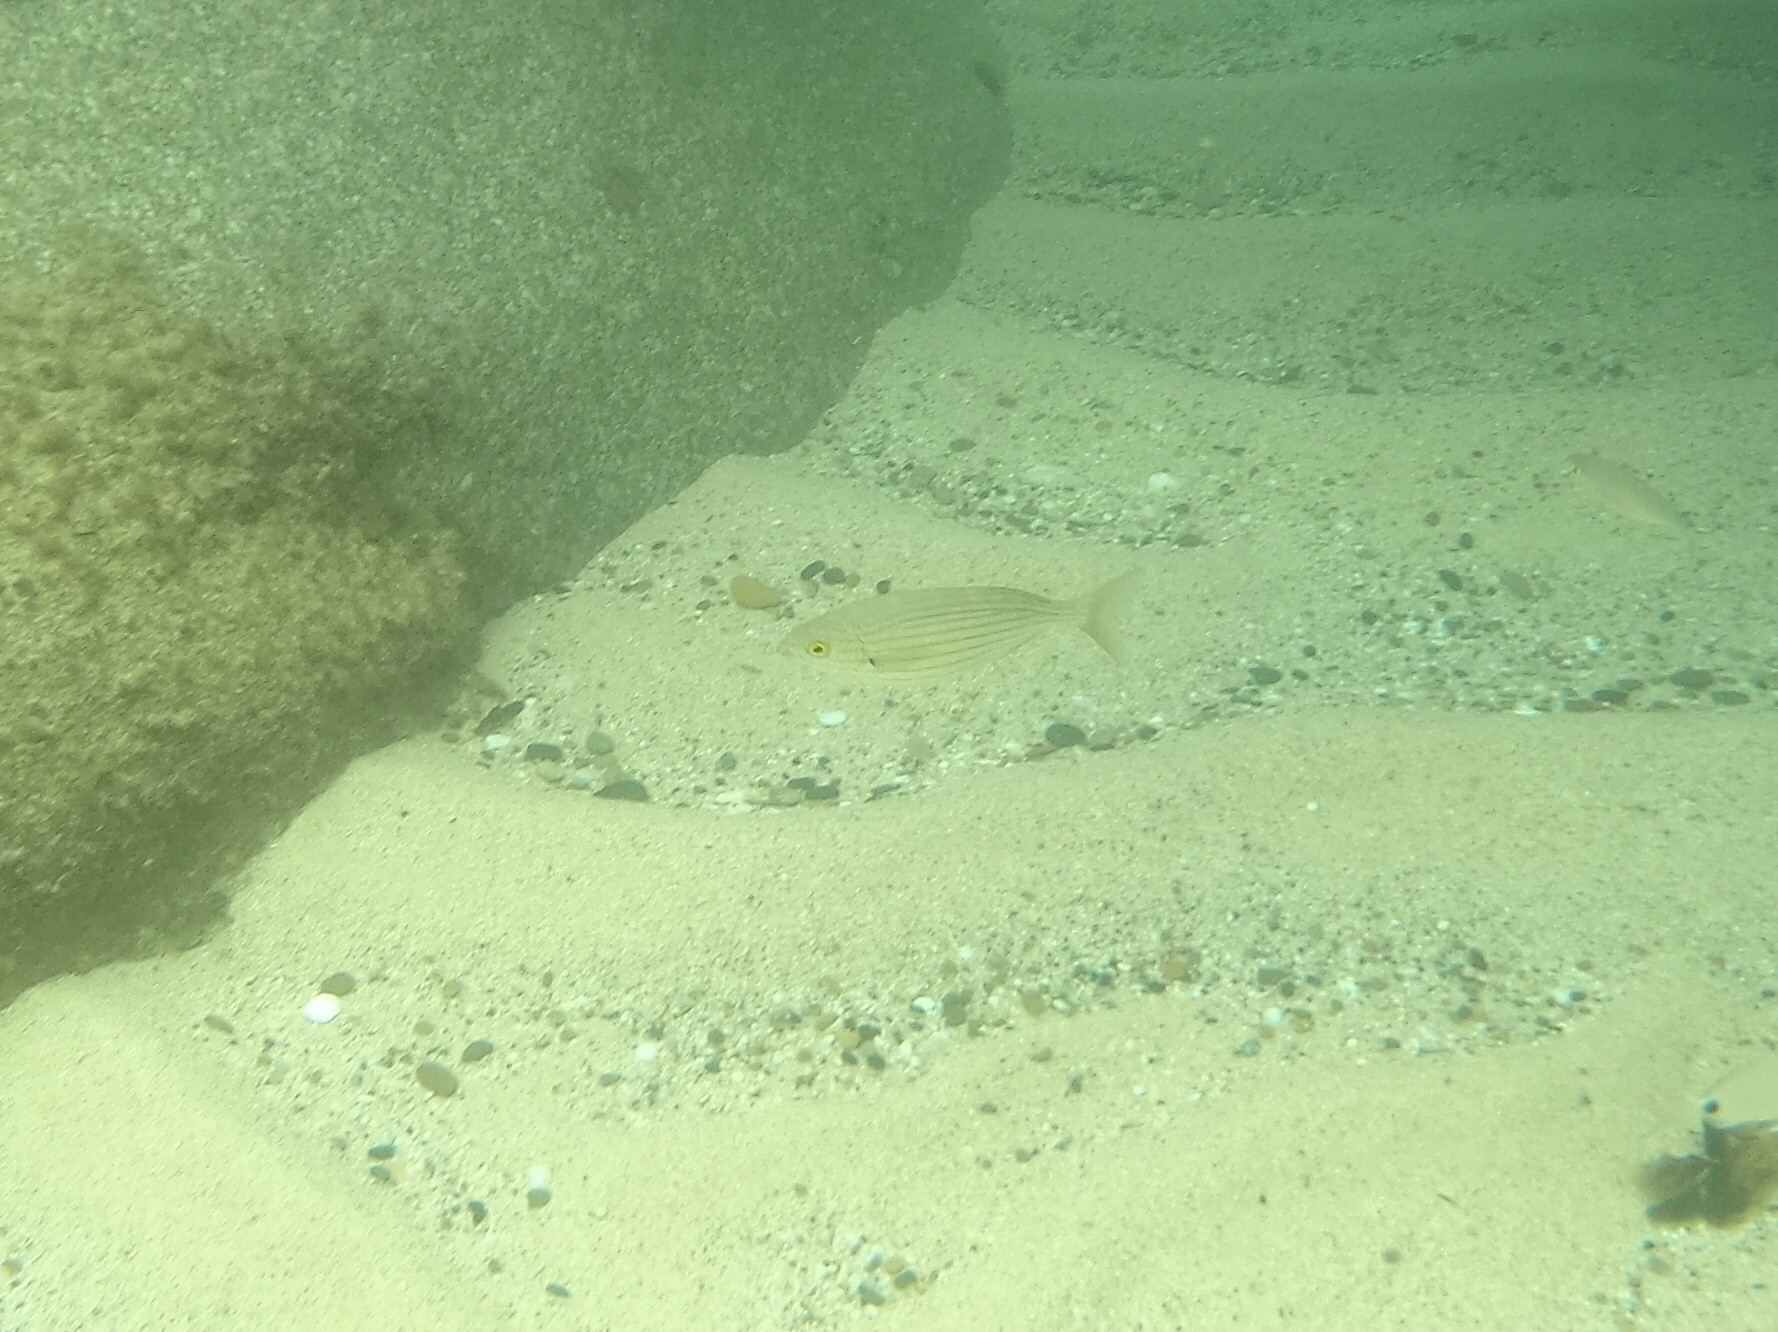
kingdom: Animalia
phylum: Chordata
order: Perciformes
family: Sparidae
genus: Sarpa
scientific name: Sarpa salpa
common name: Salema
